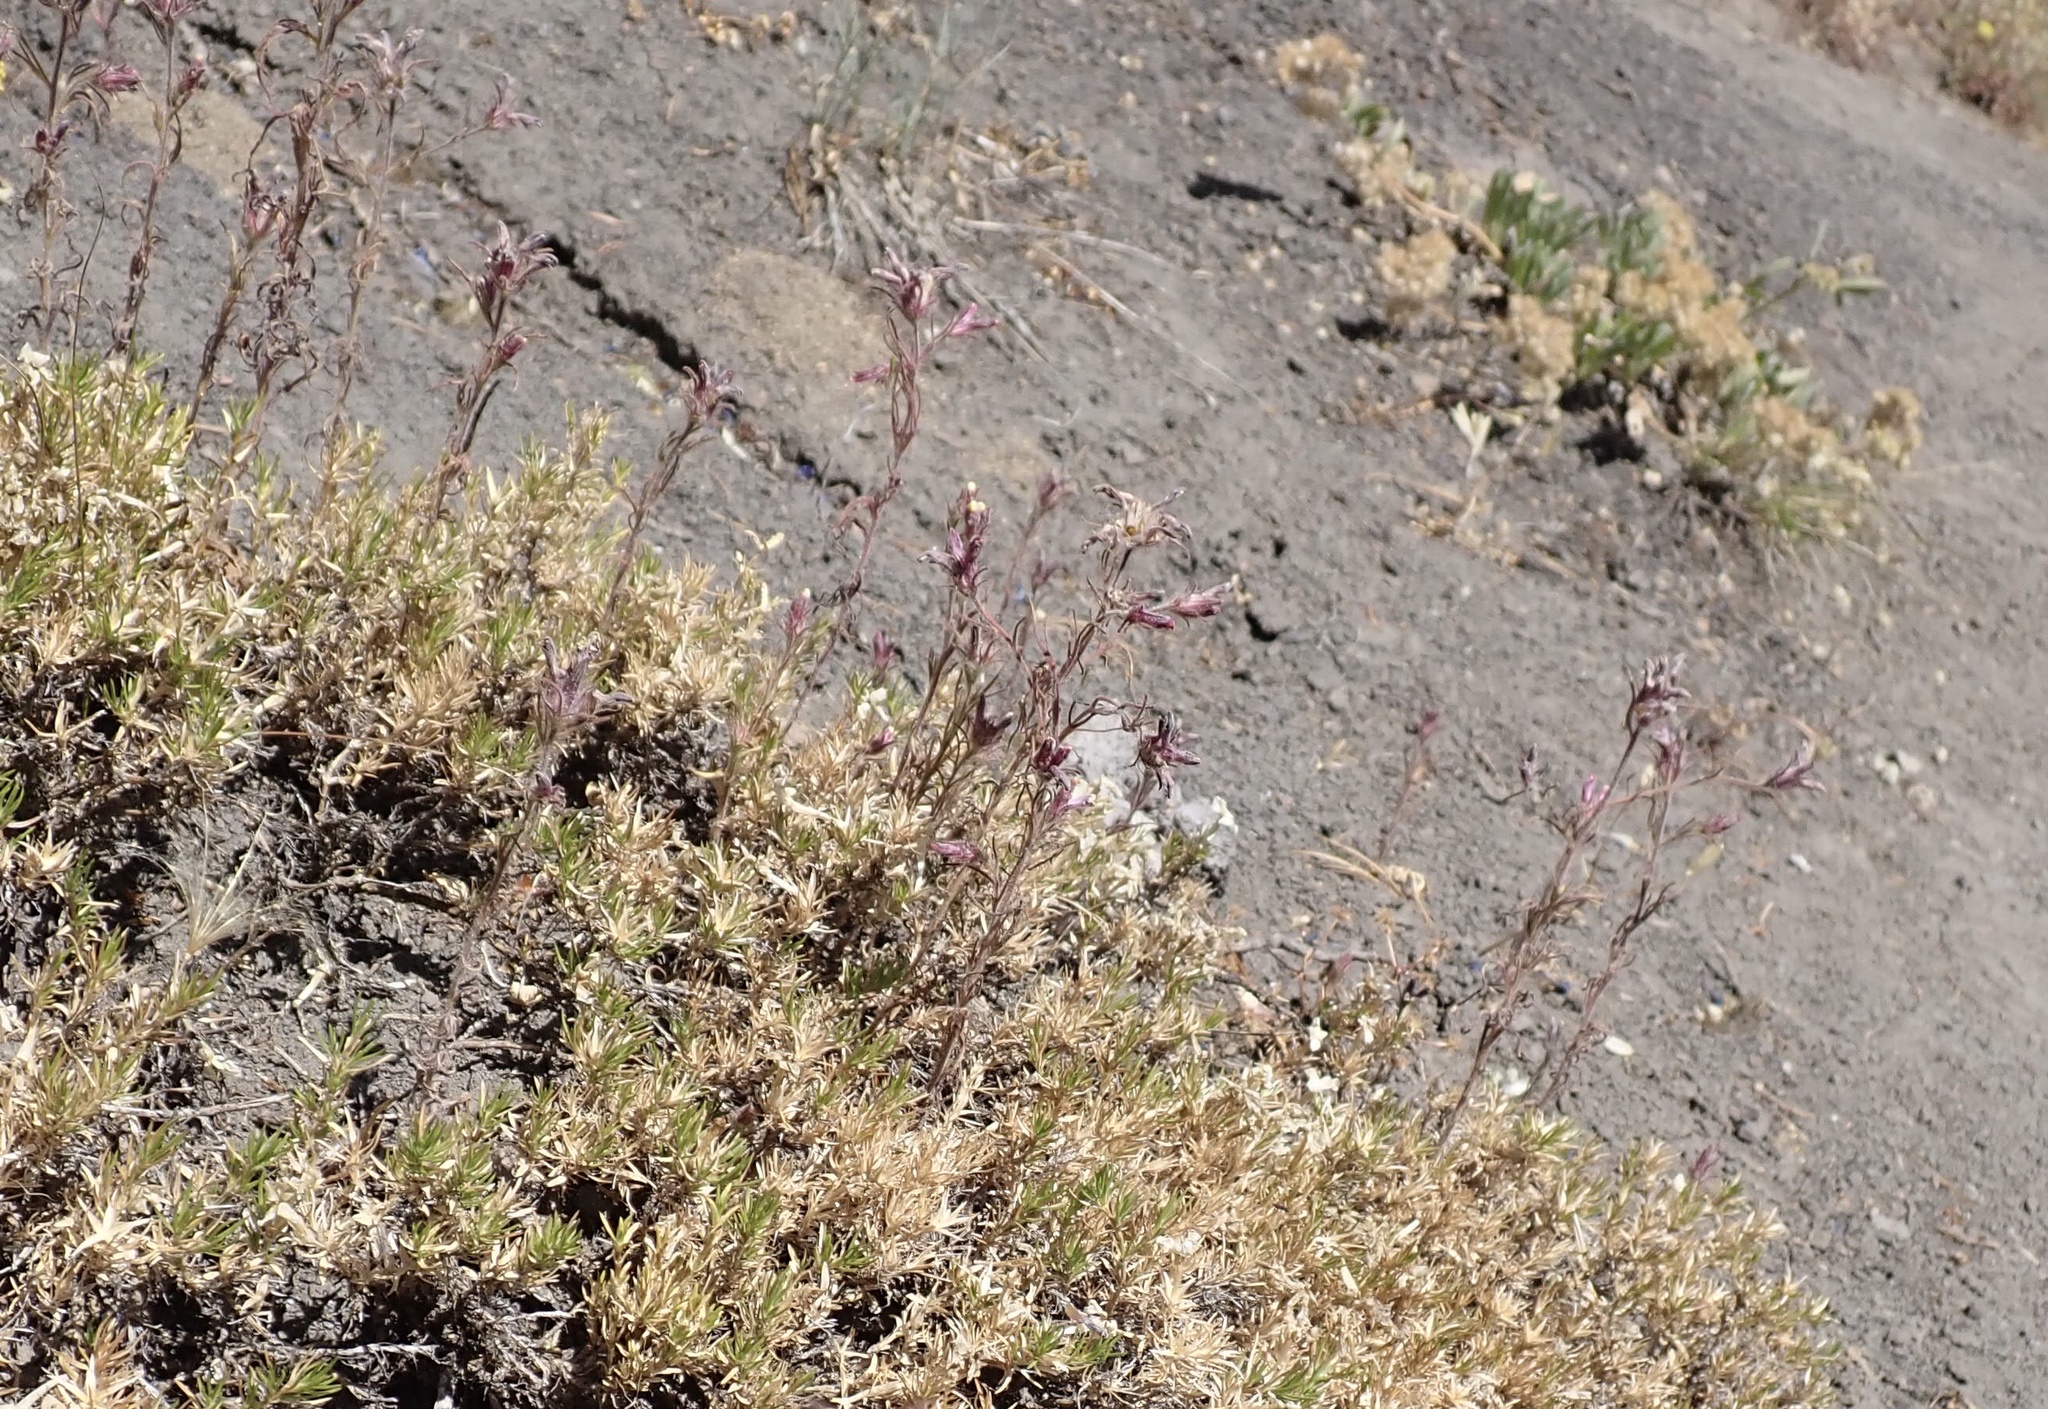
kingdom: Plantae
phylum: Tracheophyta
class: Magnoliopsida
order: Lamiales
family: Orobanchaceae
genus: Cordylanthus
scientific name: Cordylanthus capitatus
